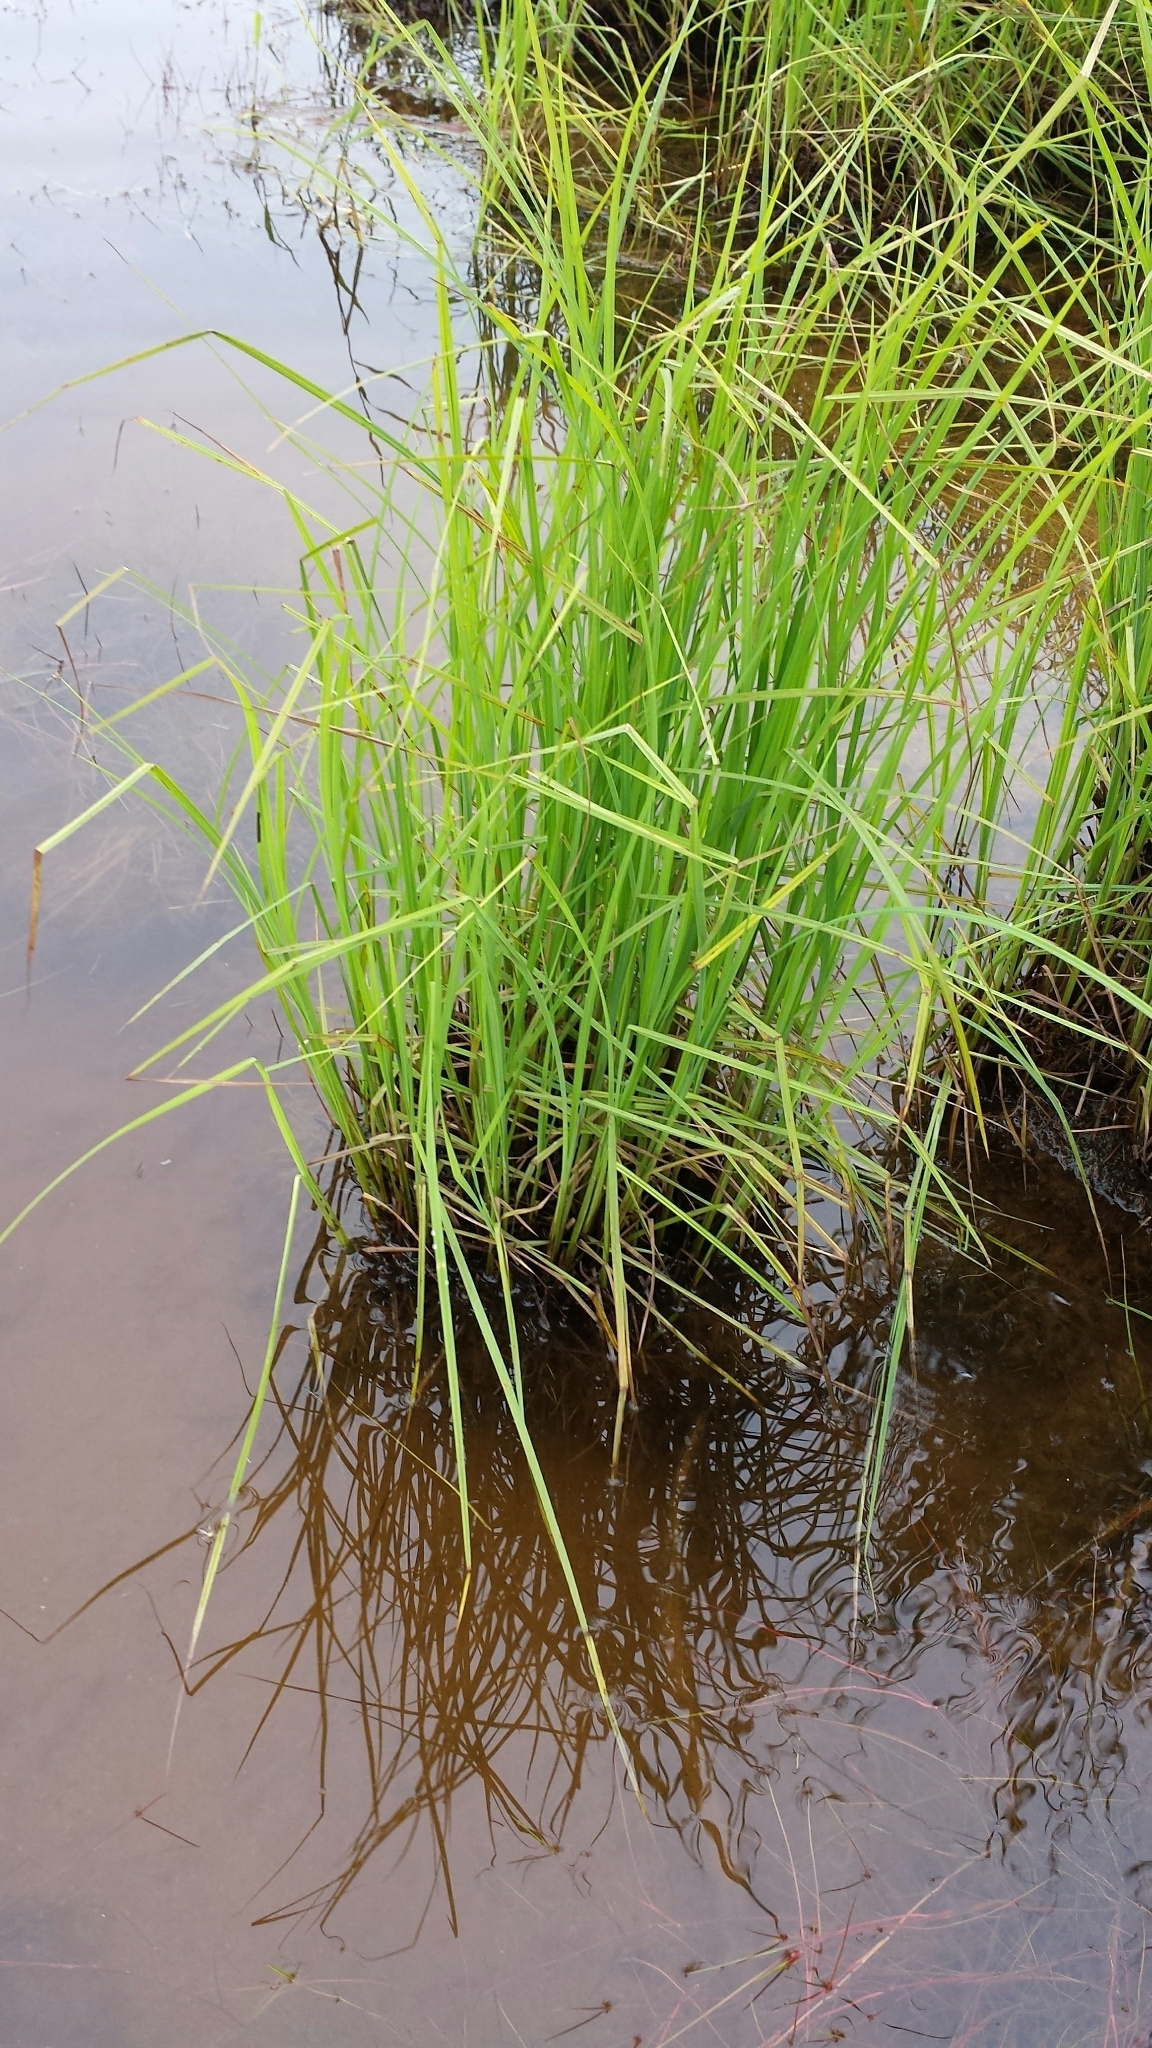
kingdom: Plantae
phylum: Tracheophyta
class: Liliopsida
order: Poales
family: Cyperaceae
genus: Carex
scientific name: Carex aquatilis
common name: Water sedge
